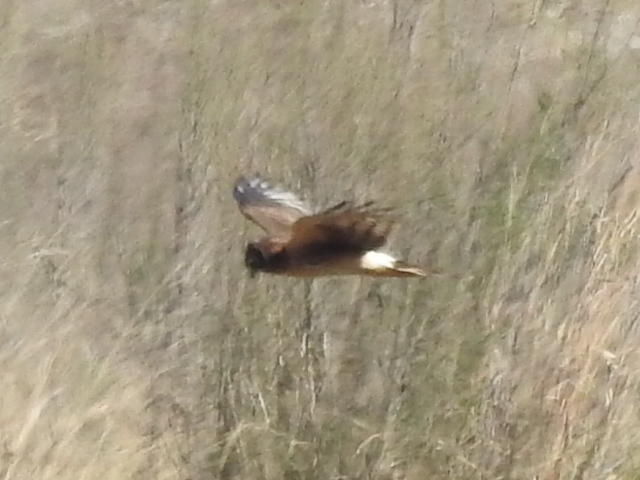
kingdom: Animalia
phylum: Chordata
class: Aves
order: Accipitriformes
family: Accipitridae
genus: Circus
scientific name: Circus cyaneus
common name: Hen harrier
